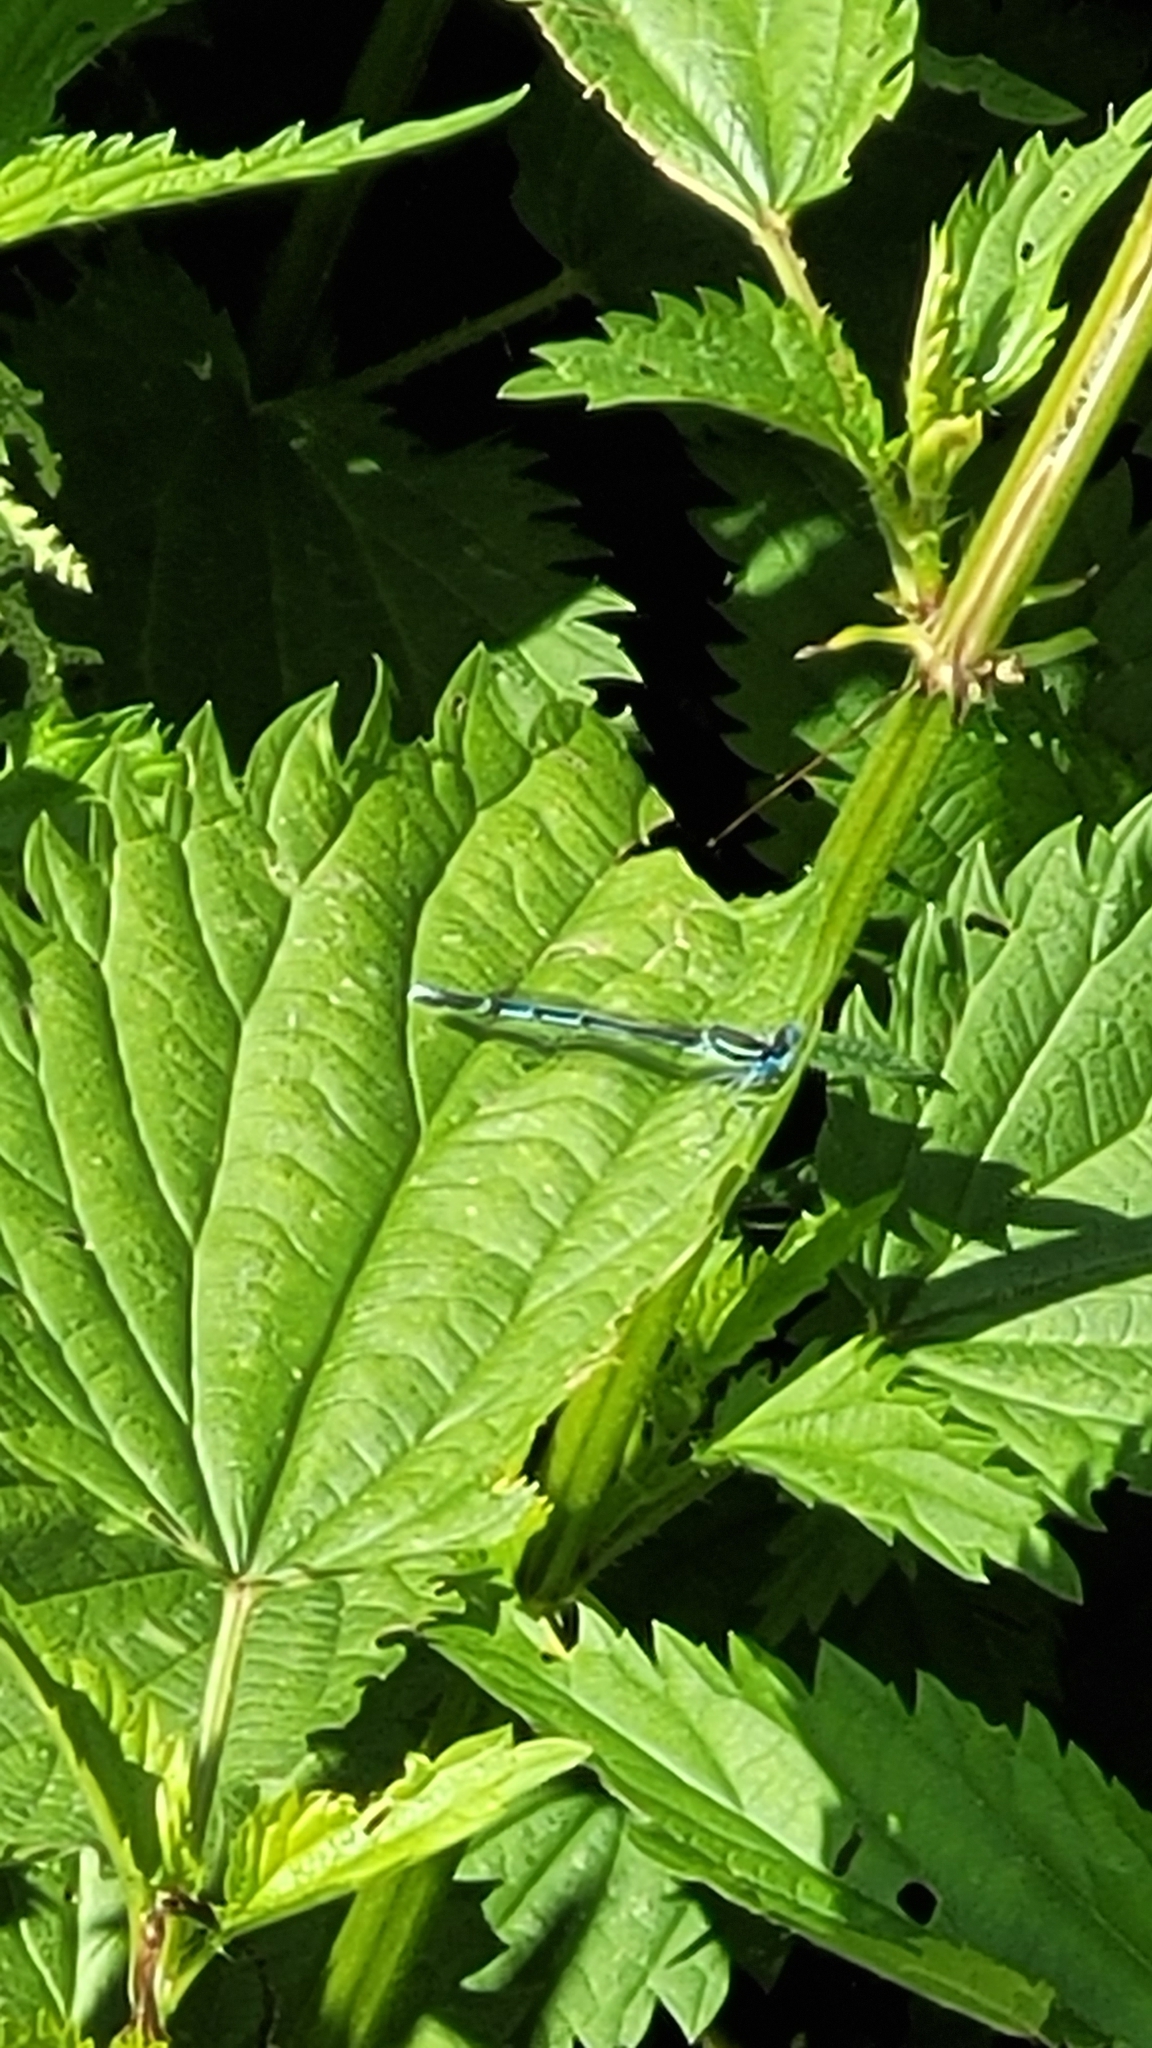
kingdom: Animalia
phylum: Arthropoda
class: Insecta
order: Odonata
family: Platycnemididae
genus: Platycnemis
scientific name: Platycnemis pennipes
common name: White-legged damselfly
